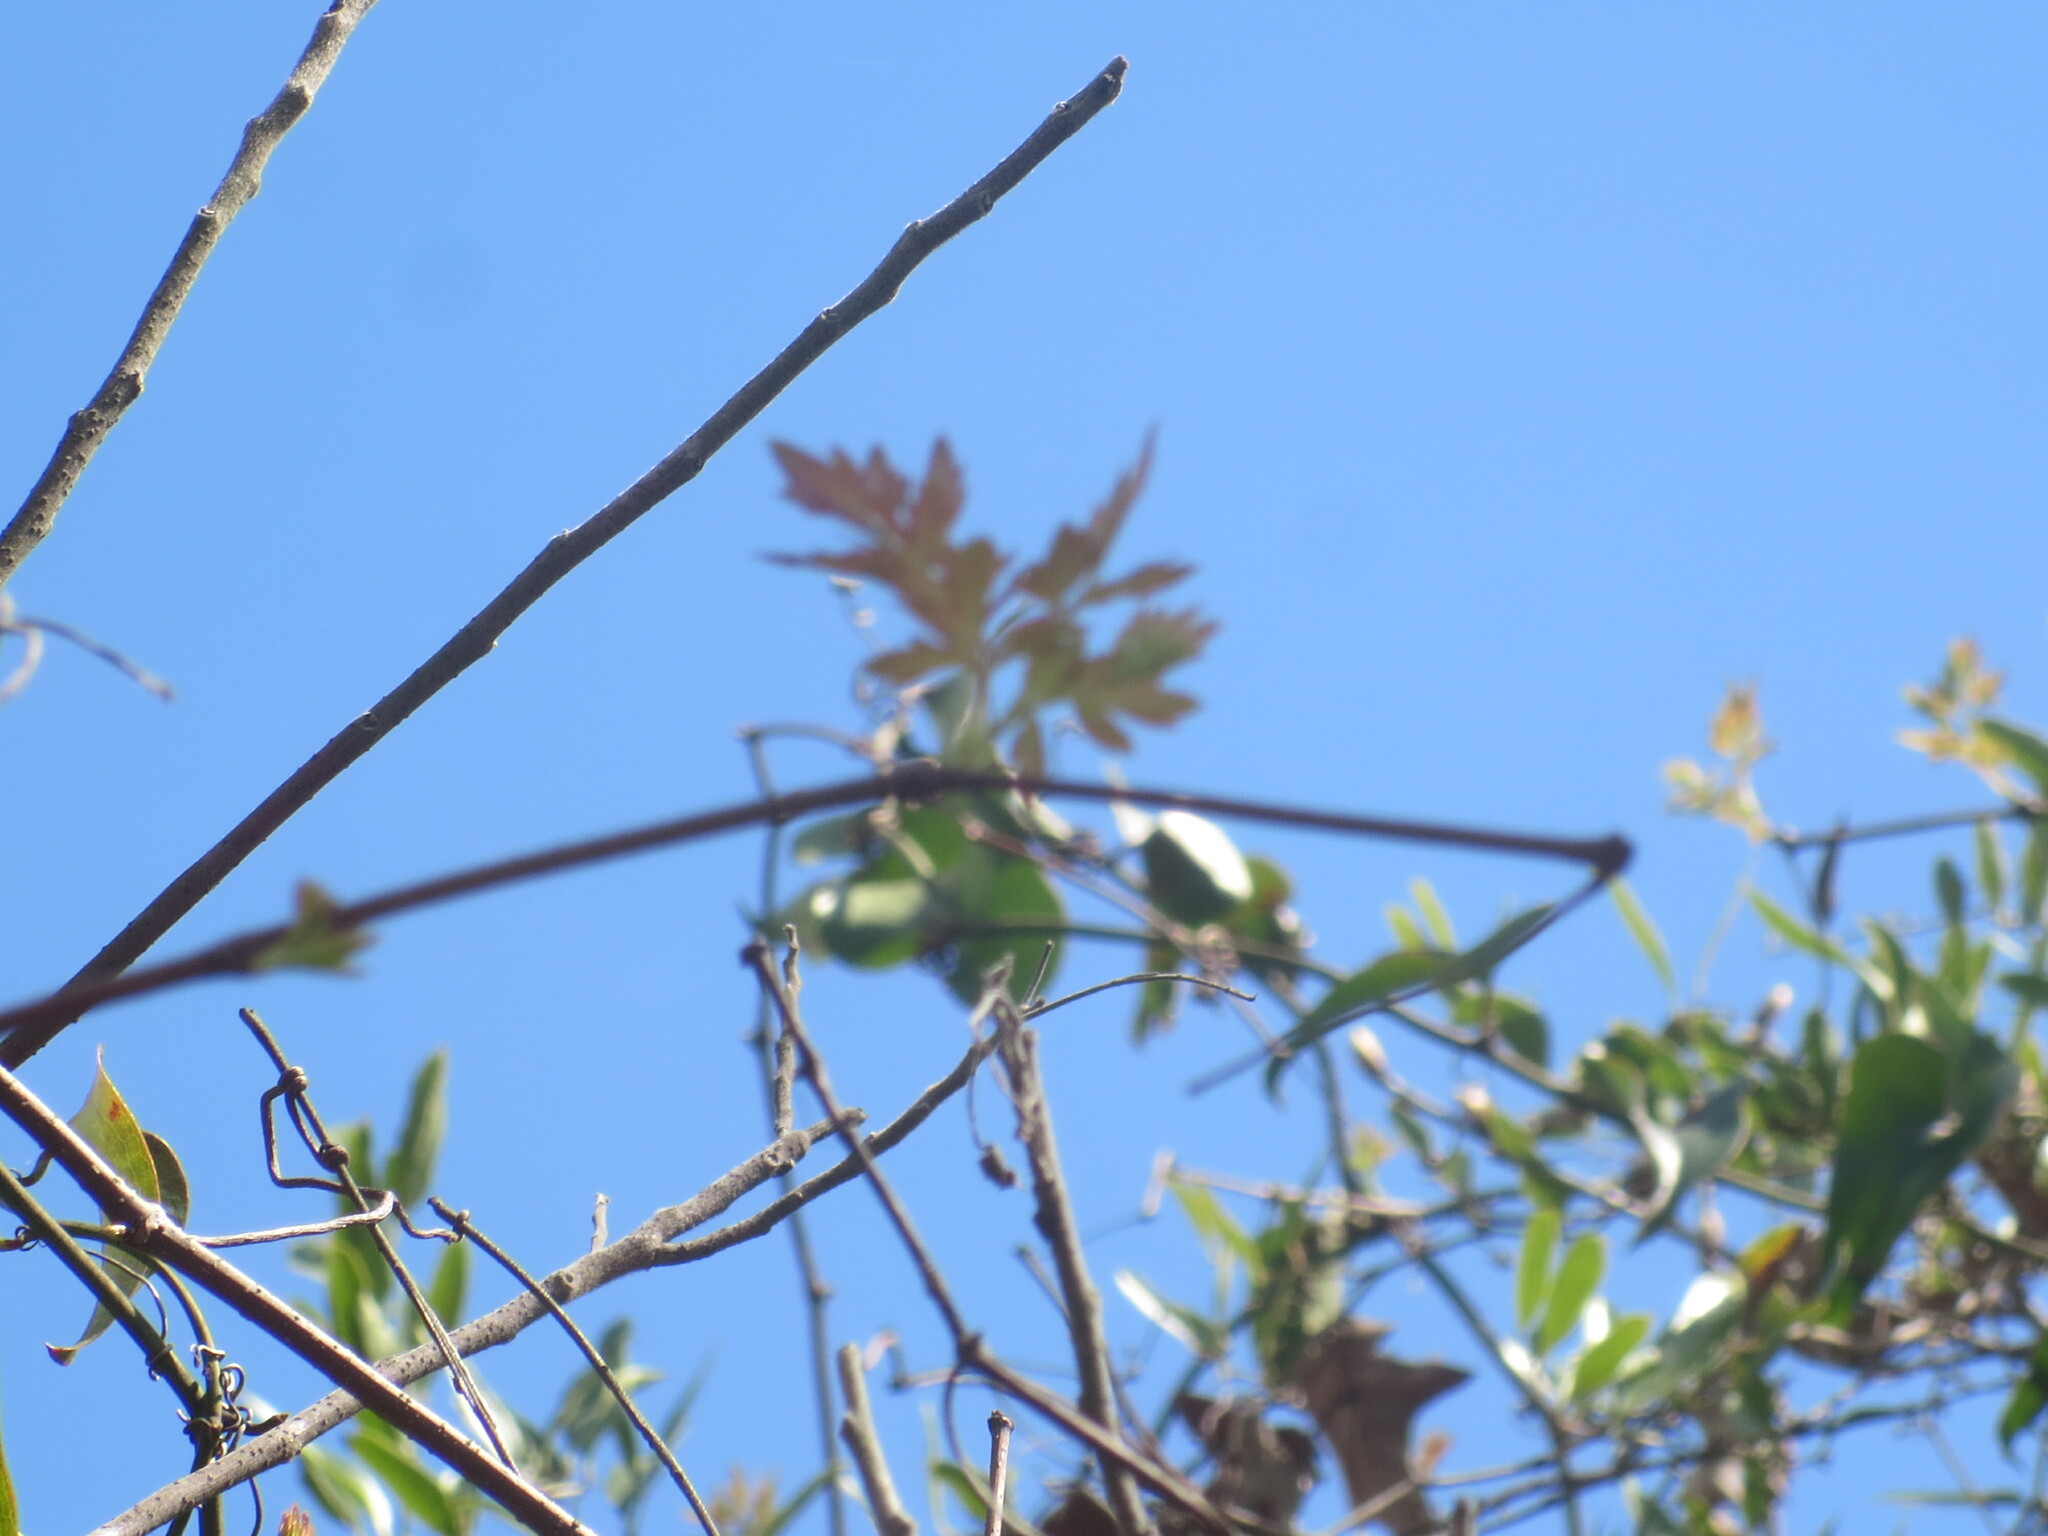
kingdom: Plantae
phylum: Tracheophyta
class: Magnoliopsida
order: Vitales
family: Vitaceae
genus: Nekemias
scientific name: Nekemias arborea
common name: Peppervine
